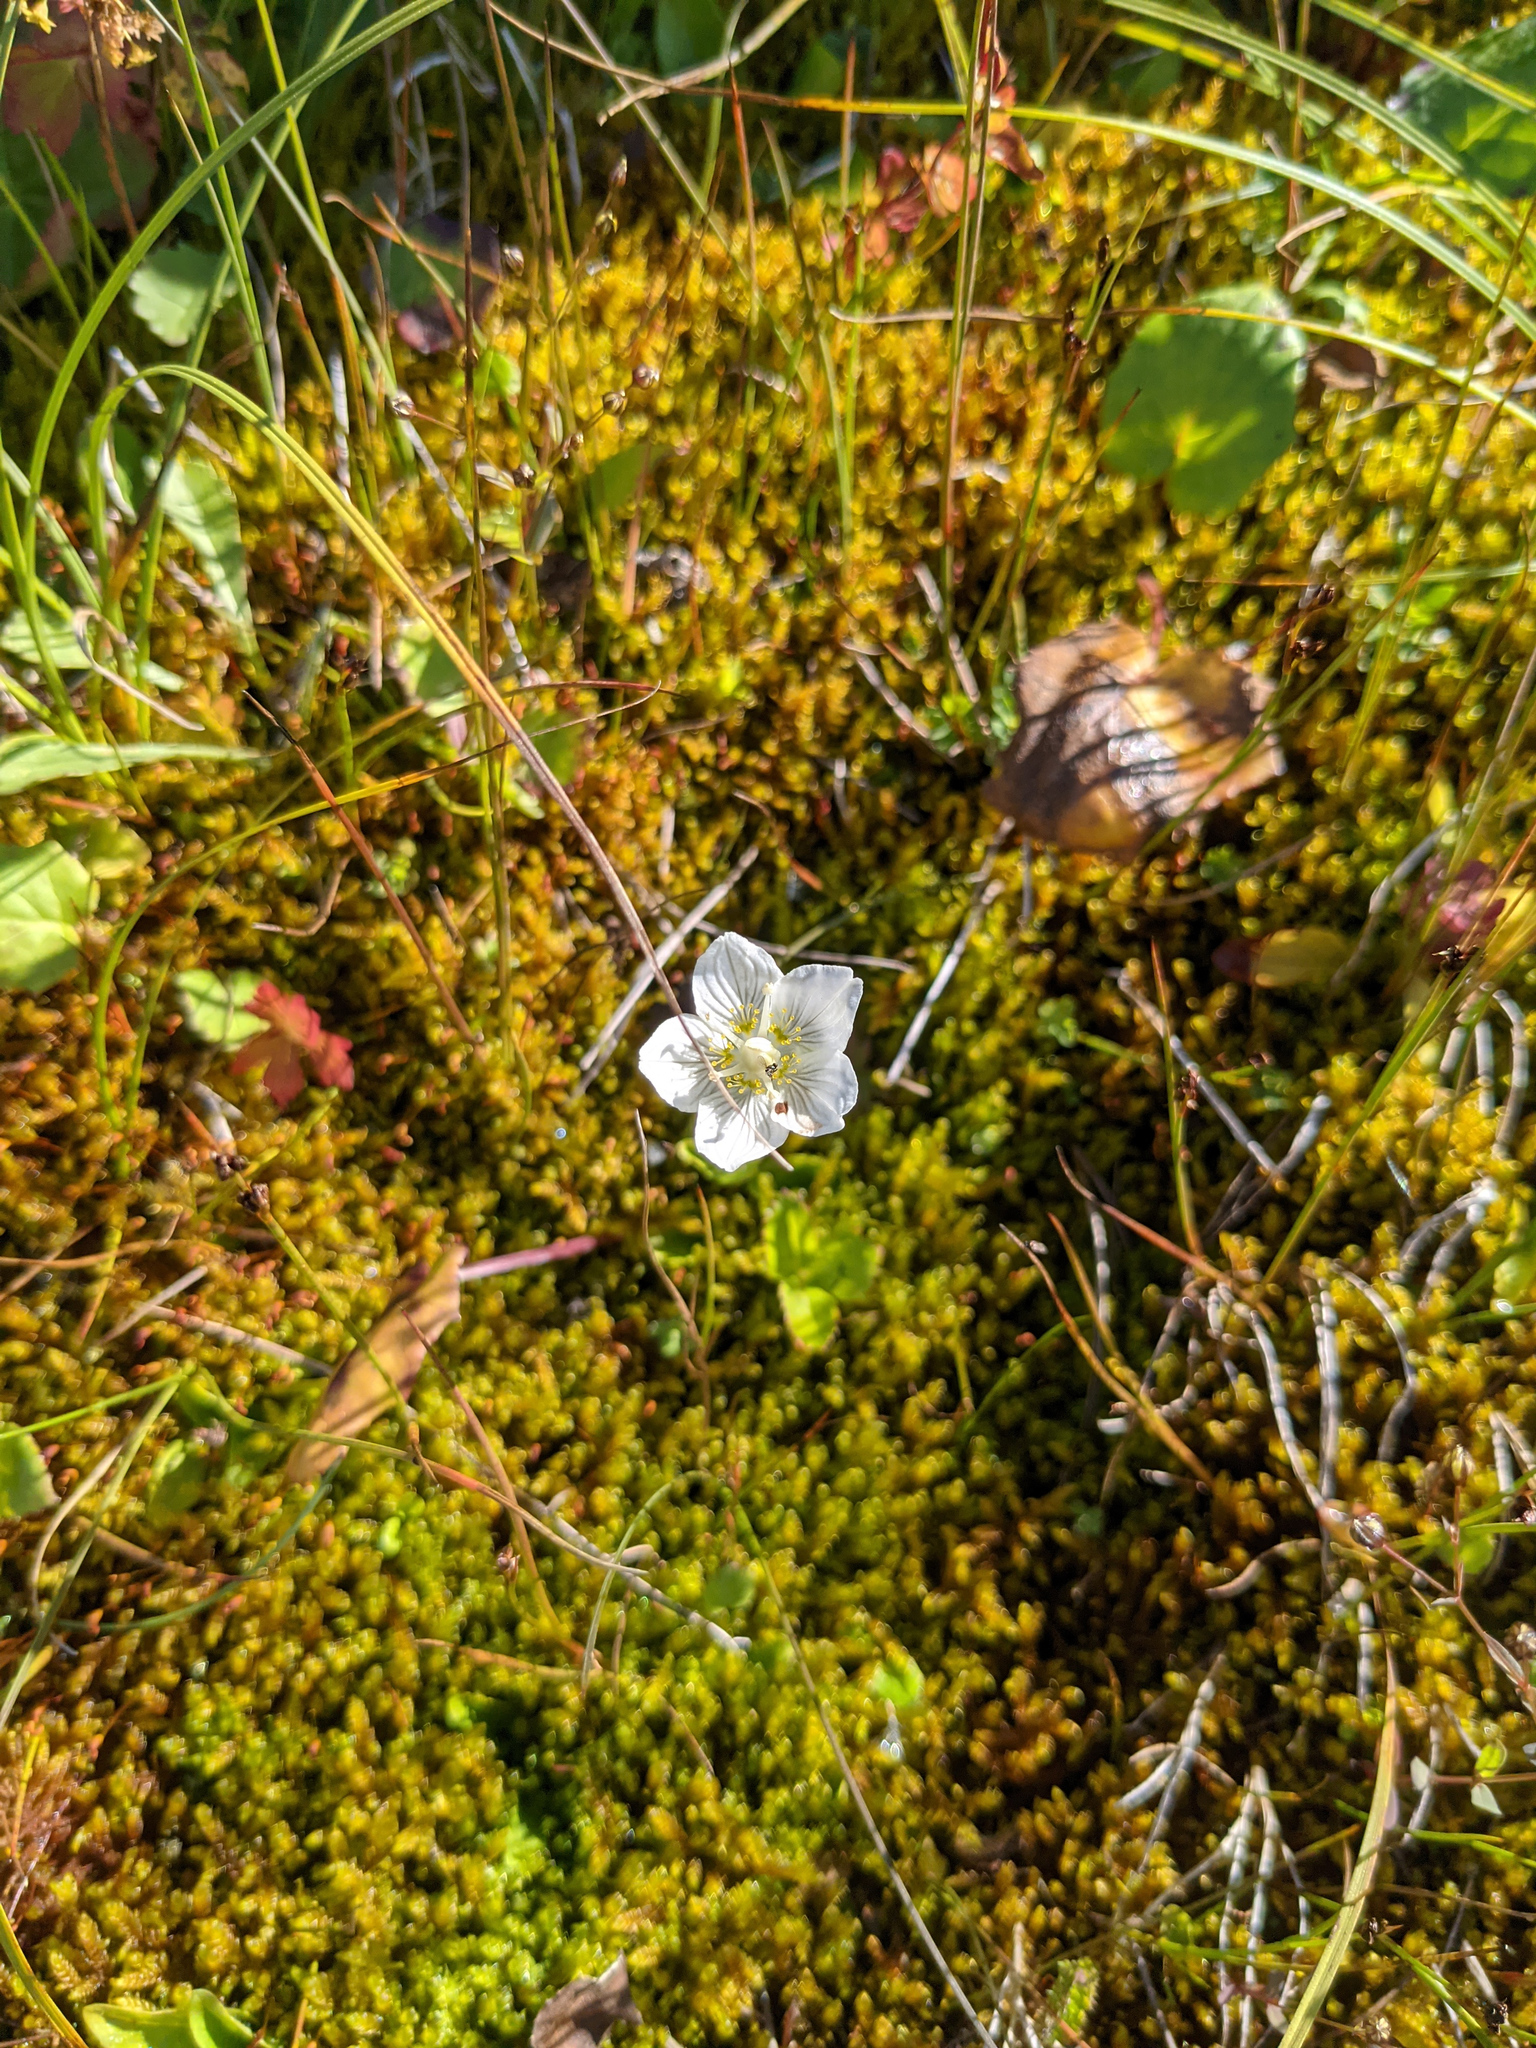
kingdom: Plantae
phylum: Tracheophyta
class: Magnoliopsida
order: Celastrales
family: Parnassiaceae
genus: Parnassia
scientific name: Parnassia palustris
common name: Grass-of-parnassus
